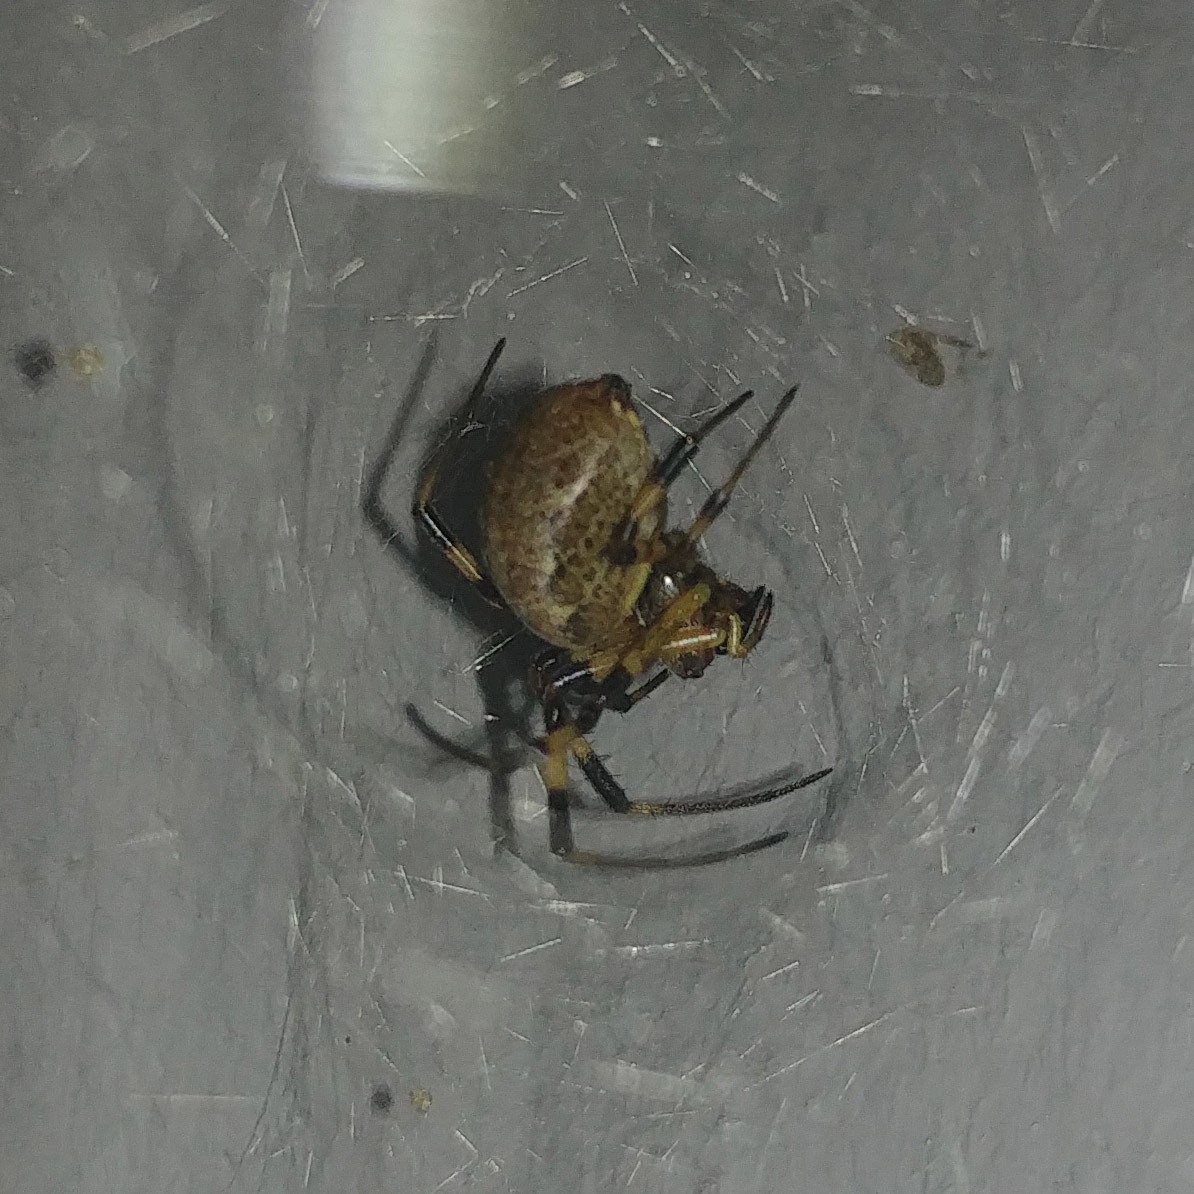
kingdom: Animalia
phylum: Arthropoda
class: Arachnida
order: Araneae
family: Araneidae
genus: Nephilengys
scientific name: Nephilengys malabarensis
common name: Asian hermit spider
